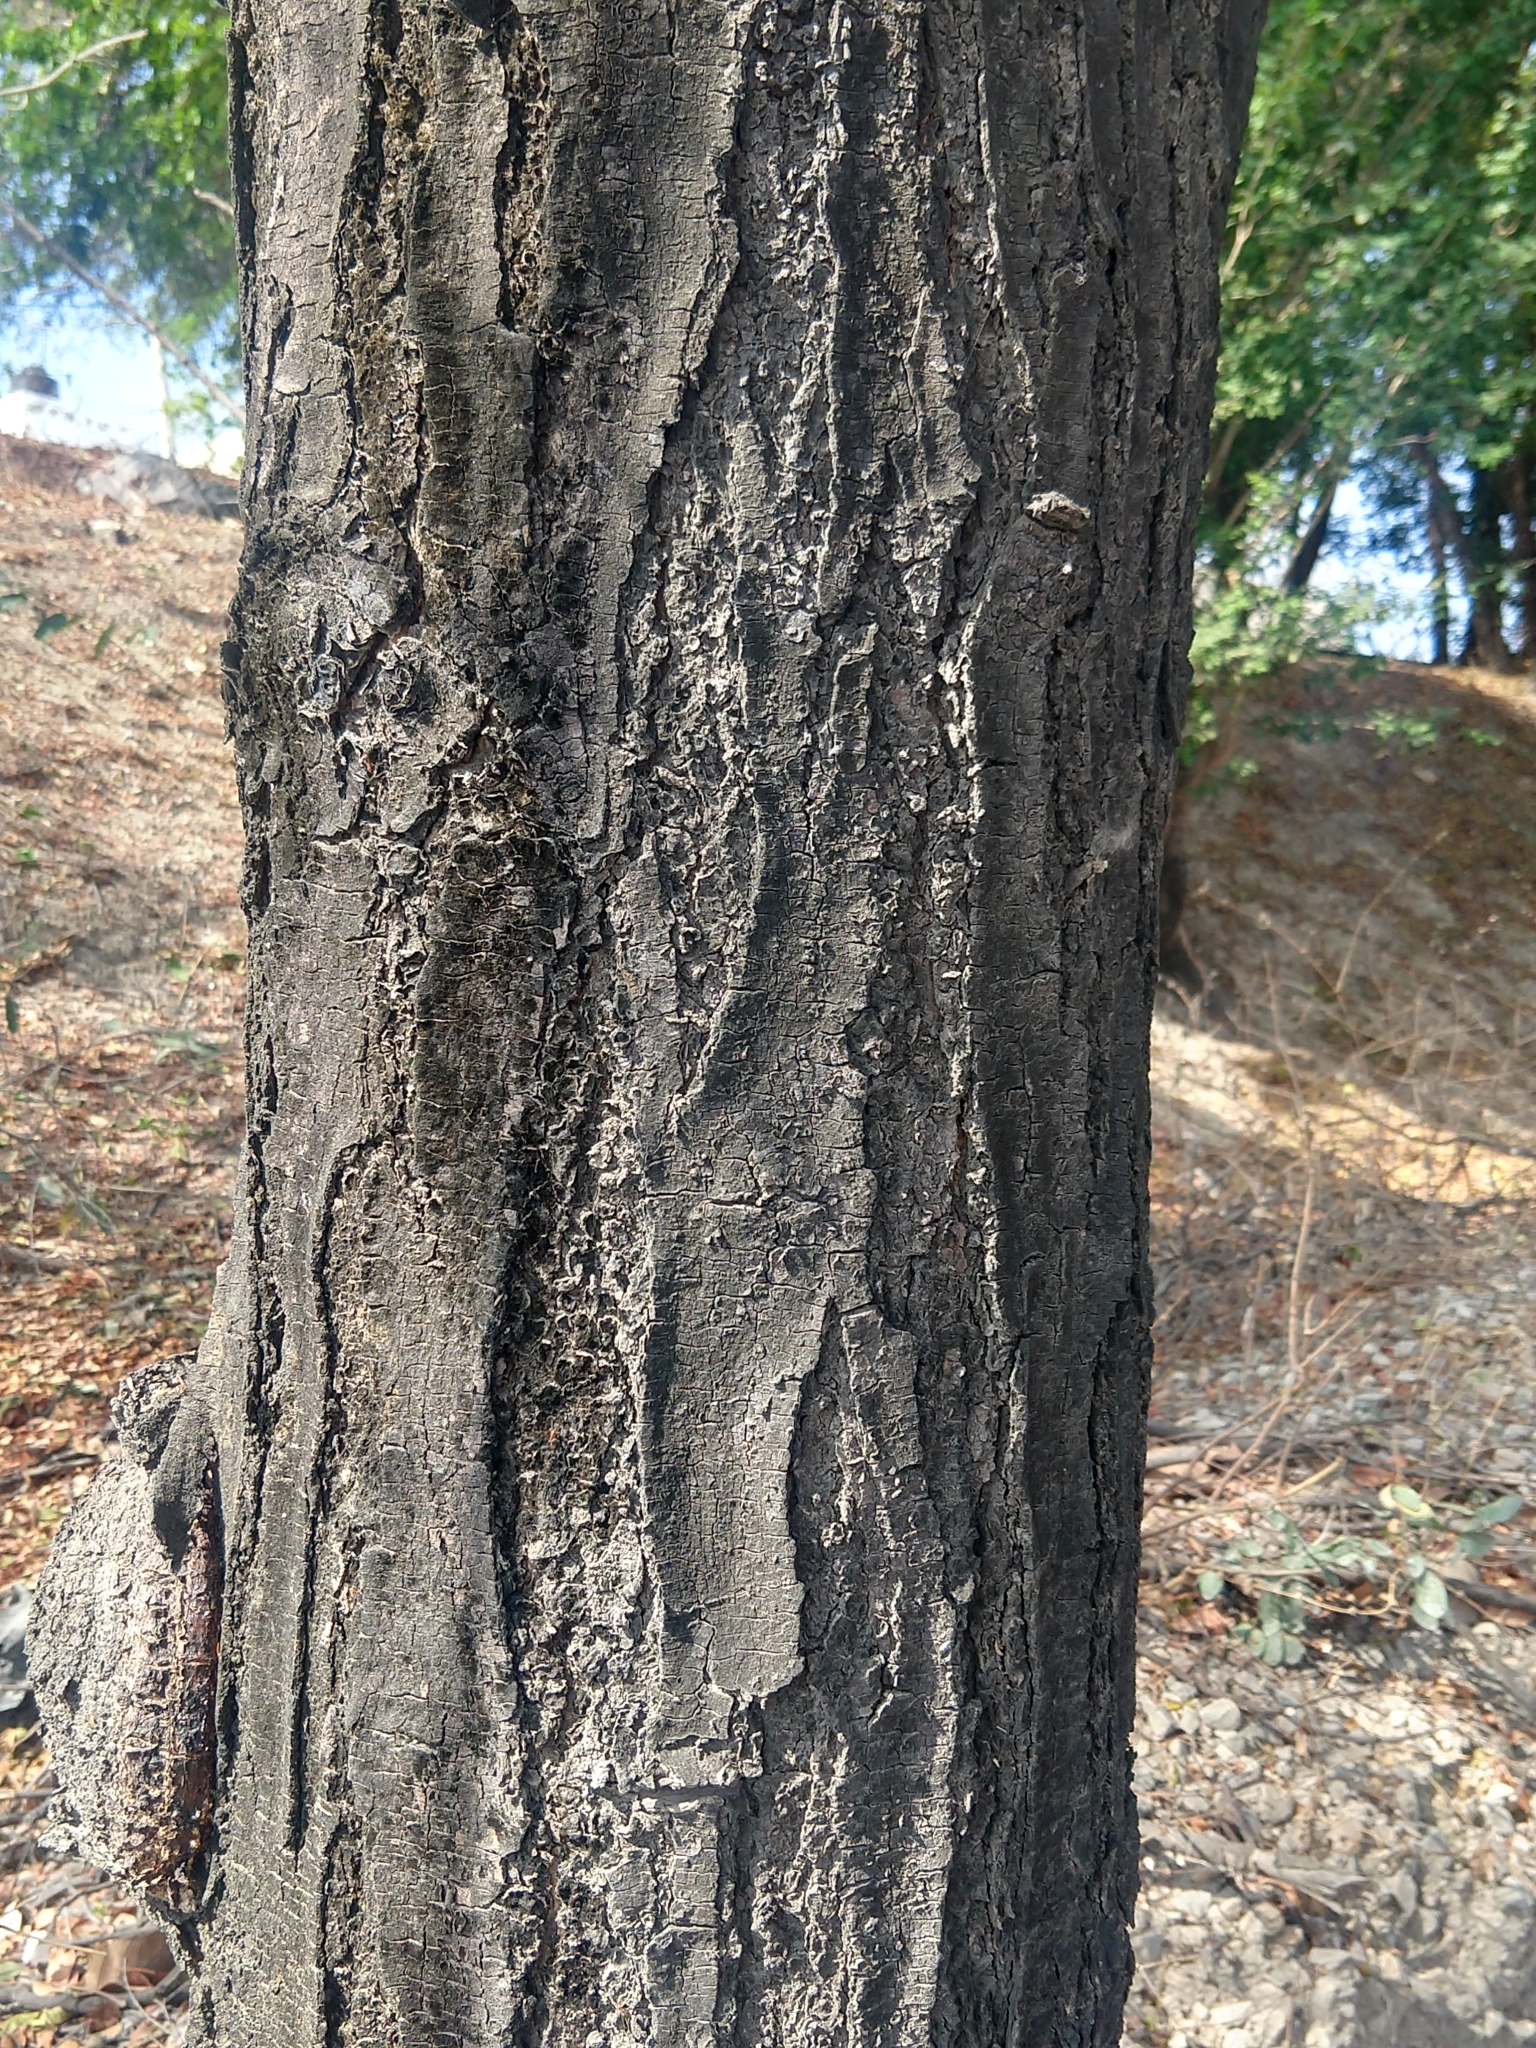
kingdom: Plantae
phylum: Tracheophyta
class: Magnoliopsida
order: Sapindales
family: Meliaceae
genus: Swietenia
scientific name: Swietenia humilis
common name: Pacific coast mahogany
